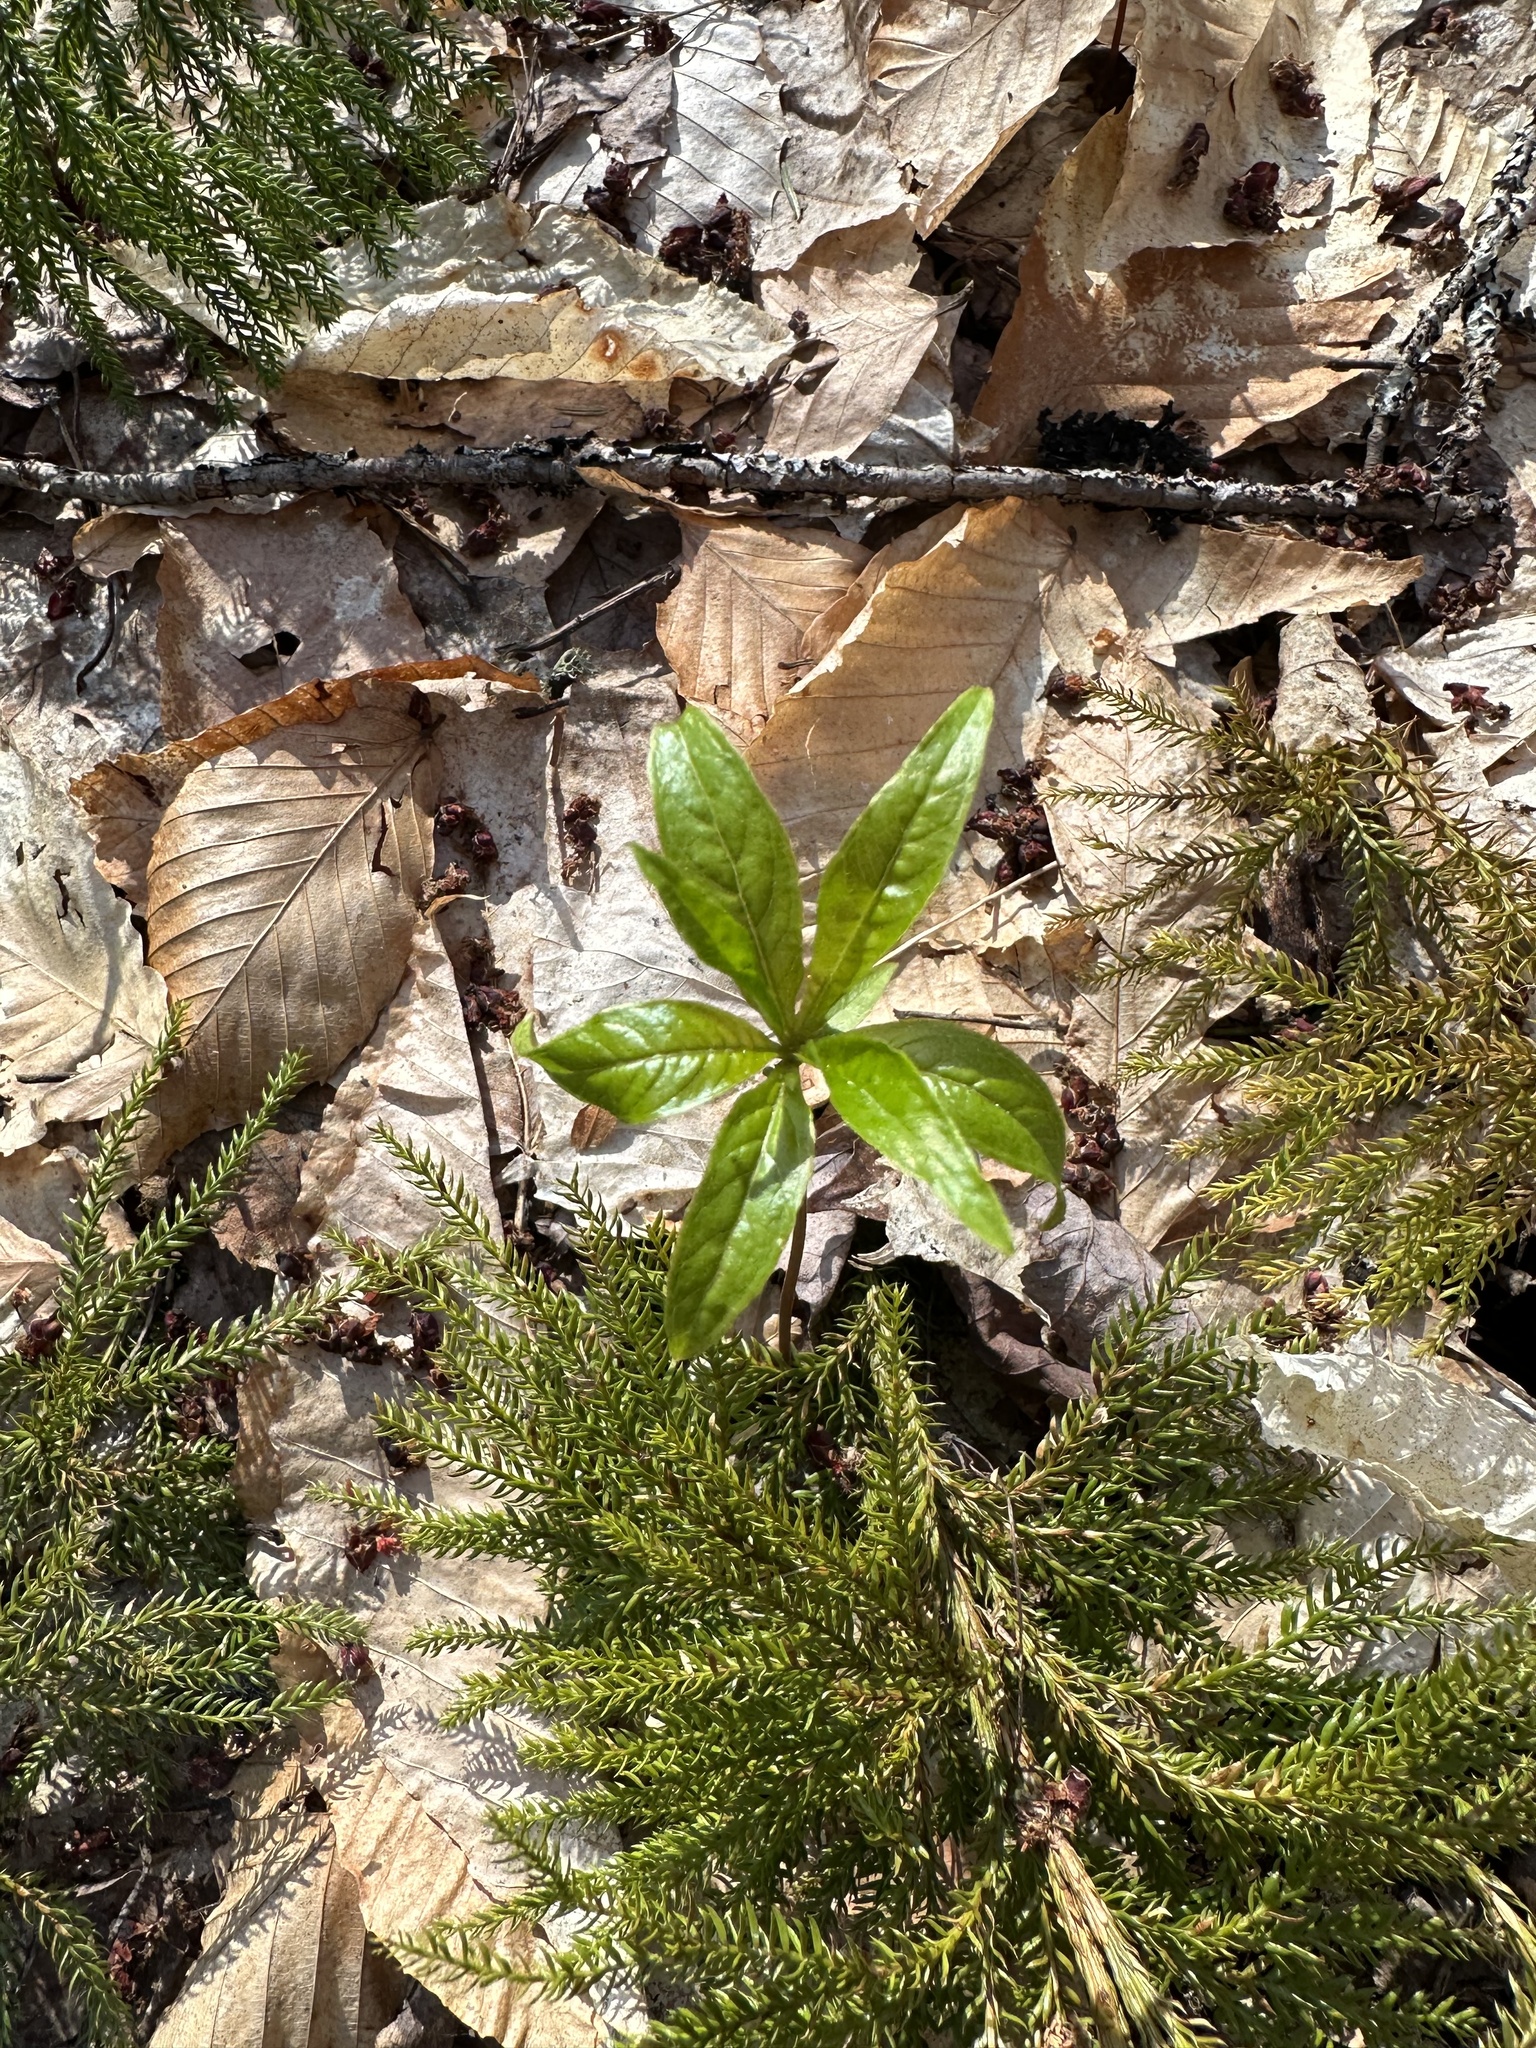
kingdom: Plantae
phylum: Tracheophyta
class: Magnoliopsida
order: Ericales
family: Primulaceae
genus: Lysimachia
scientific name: Lysimachia borealis
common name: American starflower
